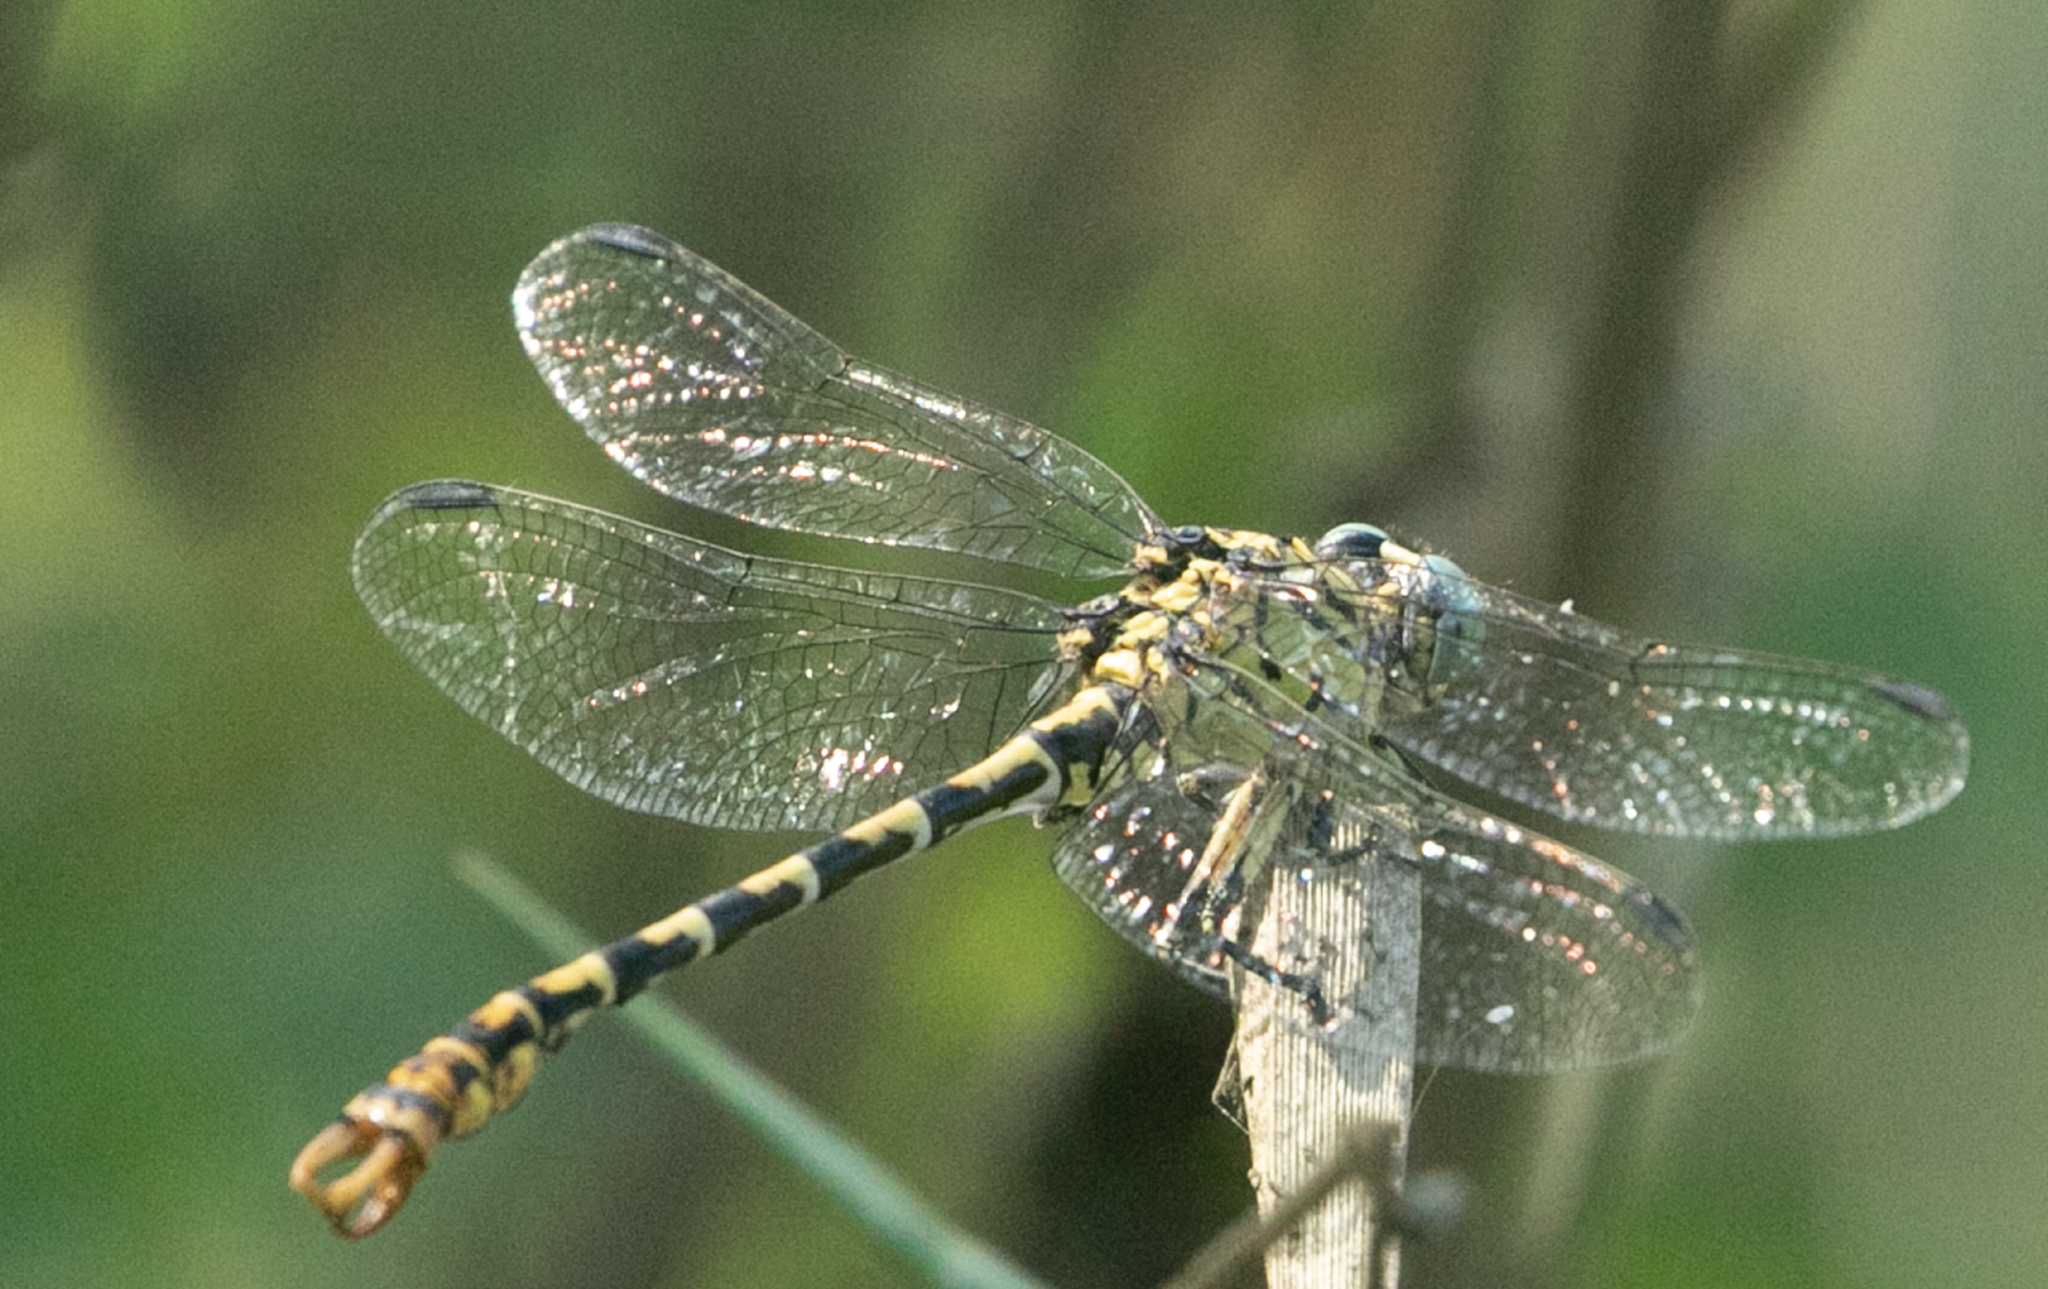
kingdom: Animalia
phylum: Arthropoda
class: Insecta
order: Odonata
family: Gomphidae
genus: Onychogomphus
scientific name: Onychogomphus forcipatus
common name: Small pincertail
